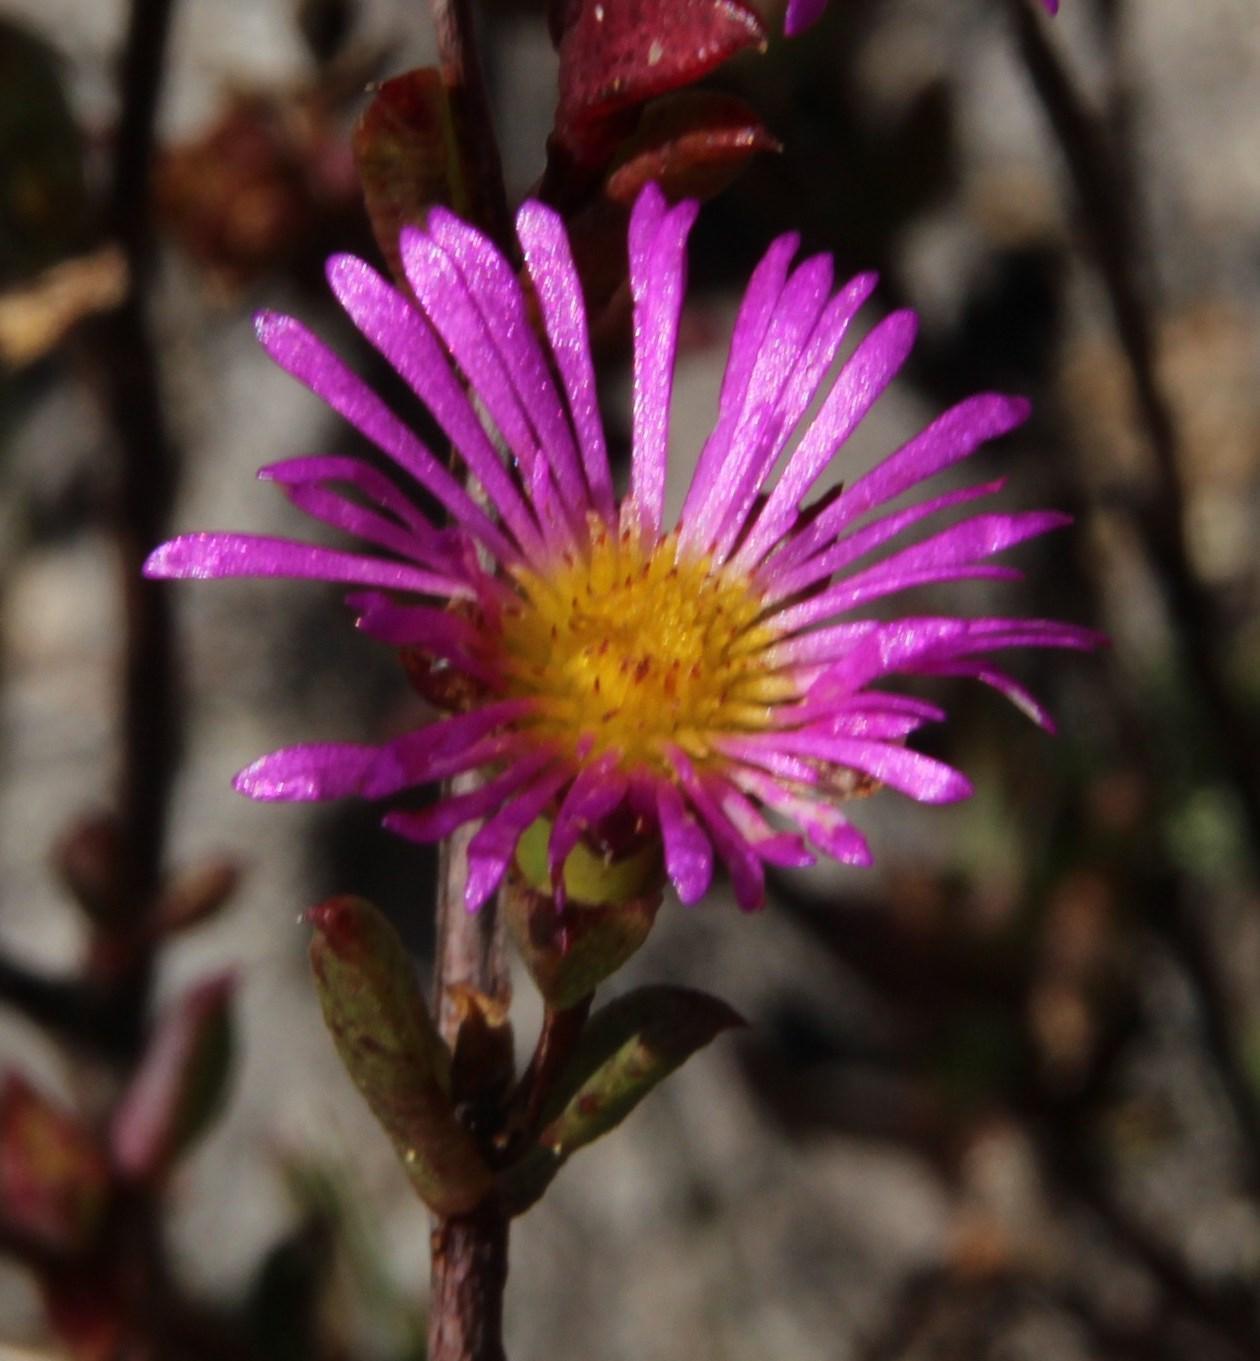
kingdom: Plantae
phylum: Tracheophyta
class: Magnoliopsida
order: Caryophyllales
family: Aizoaceae
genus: Erepsia
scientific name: Erepsia anceps
